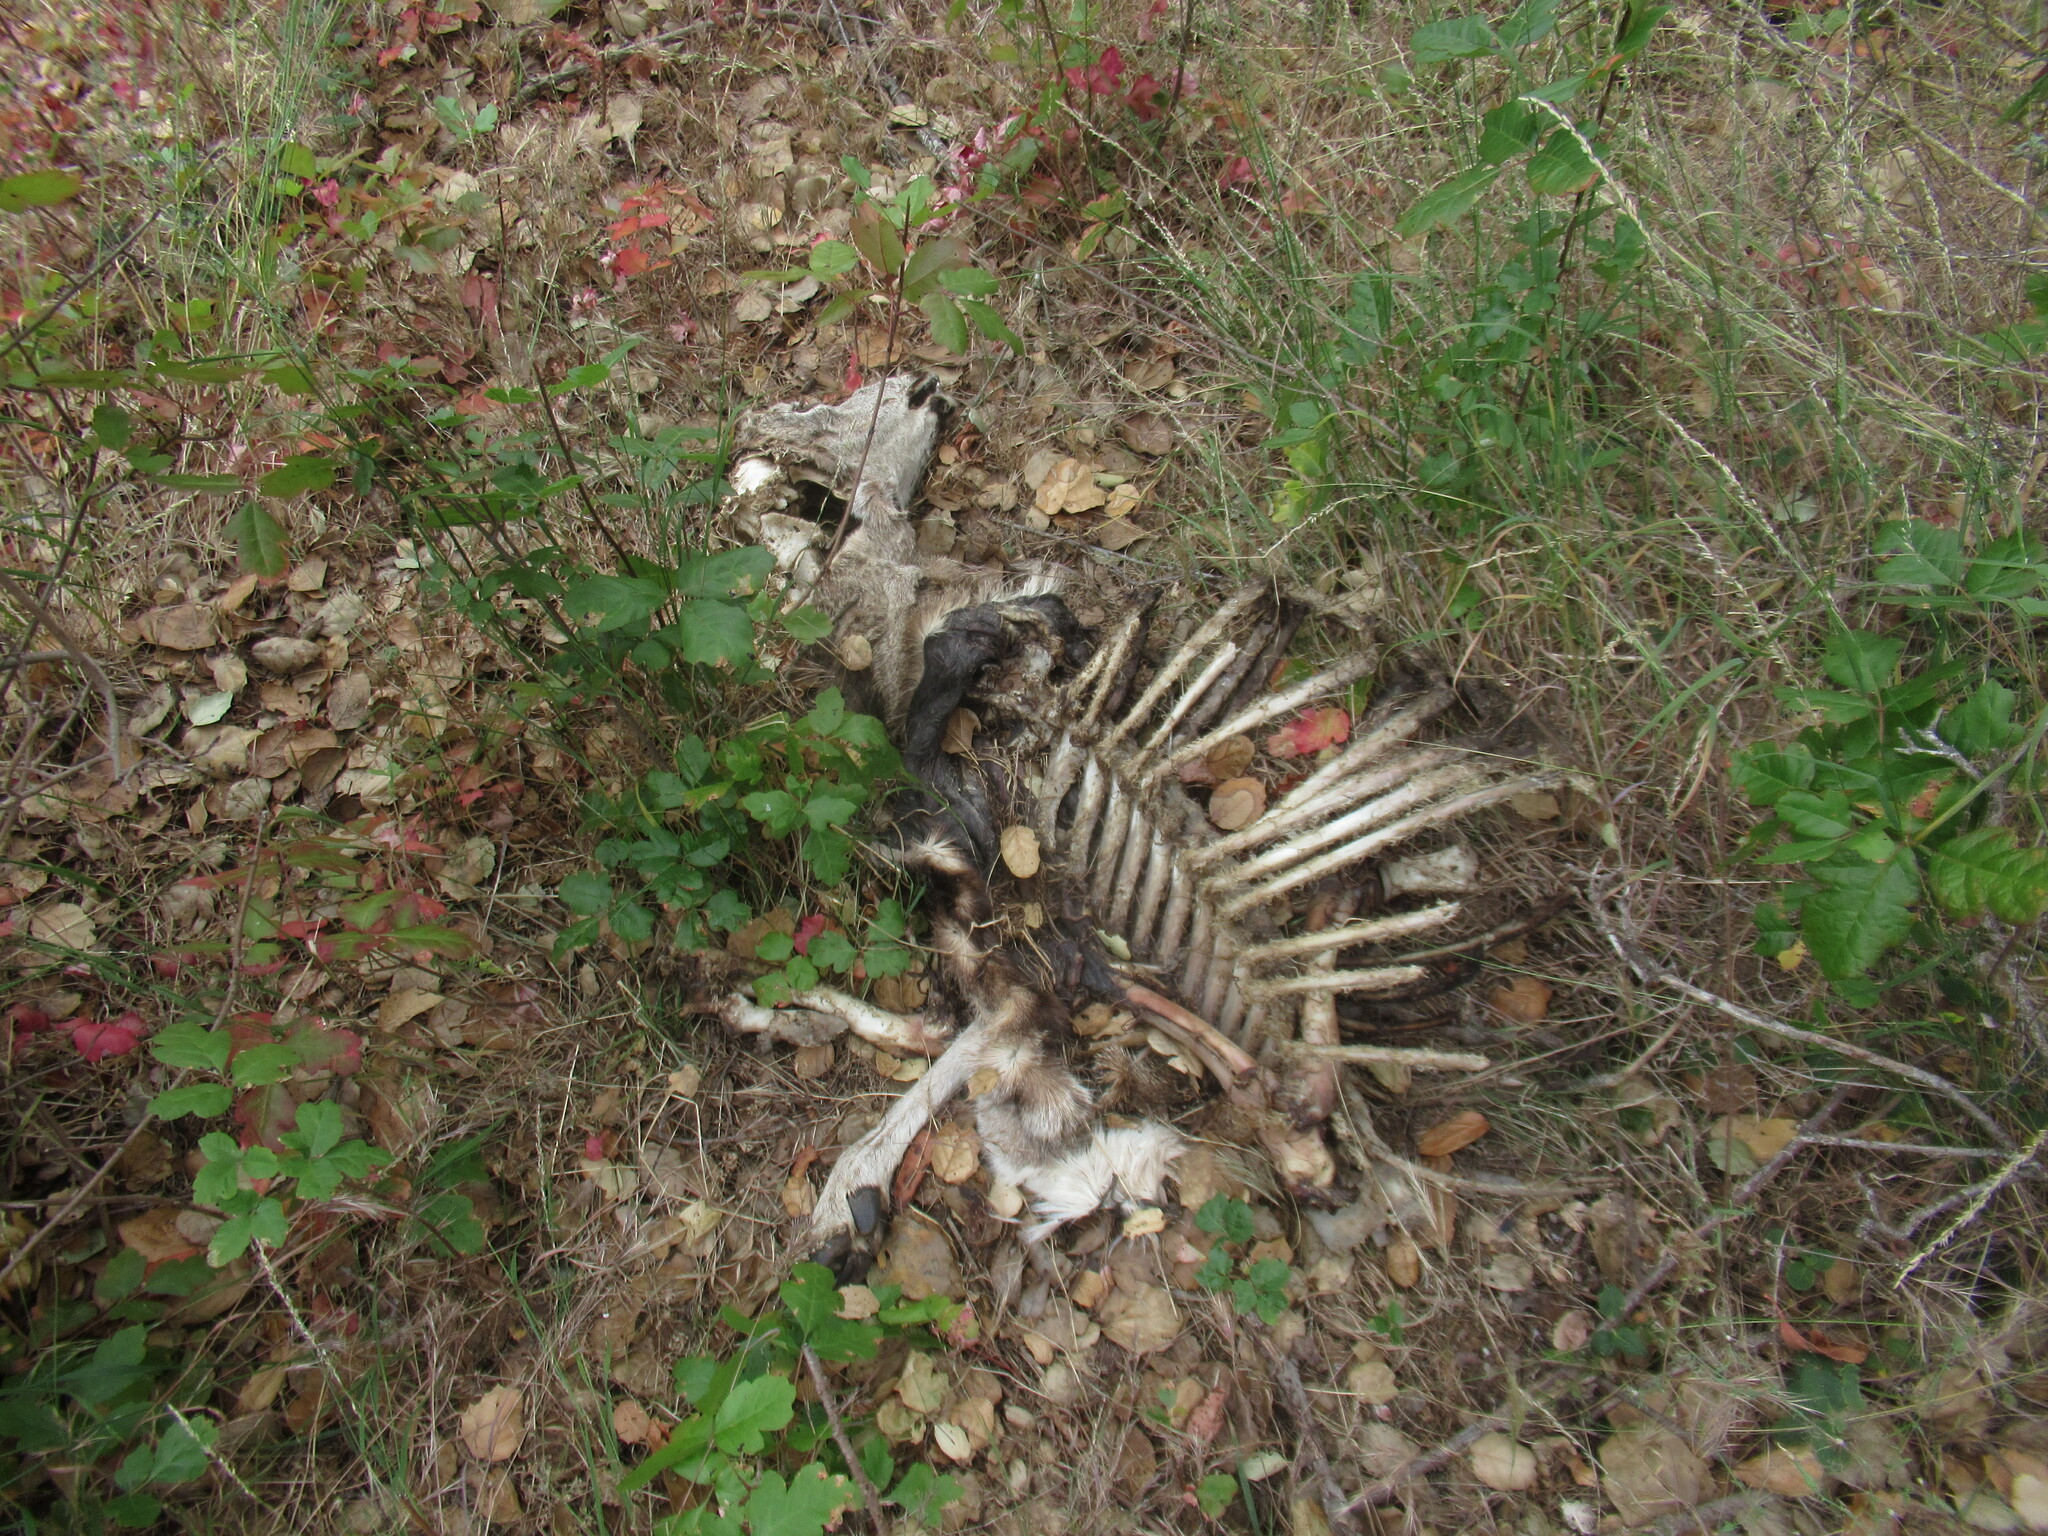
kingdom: Animalia
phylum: Chordata
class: Mammalia
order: Artiodactyla
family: Cervidae
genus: Odocoileus
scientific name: Odocoileus hemionus
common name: Mule deer
